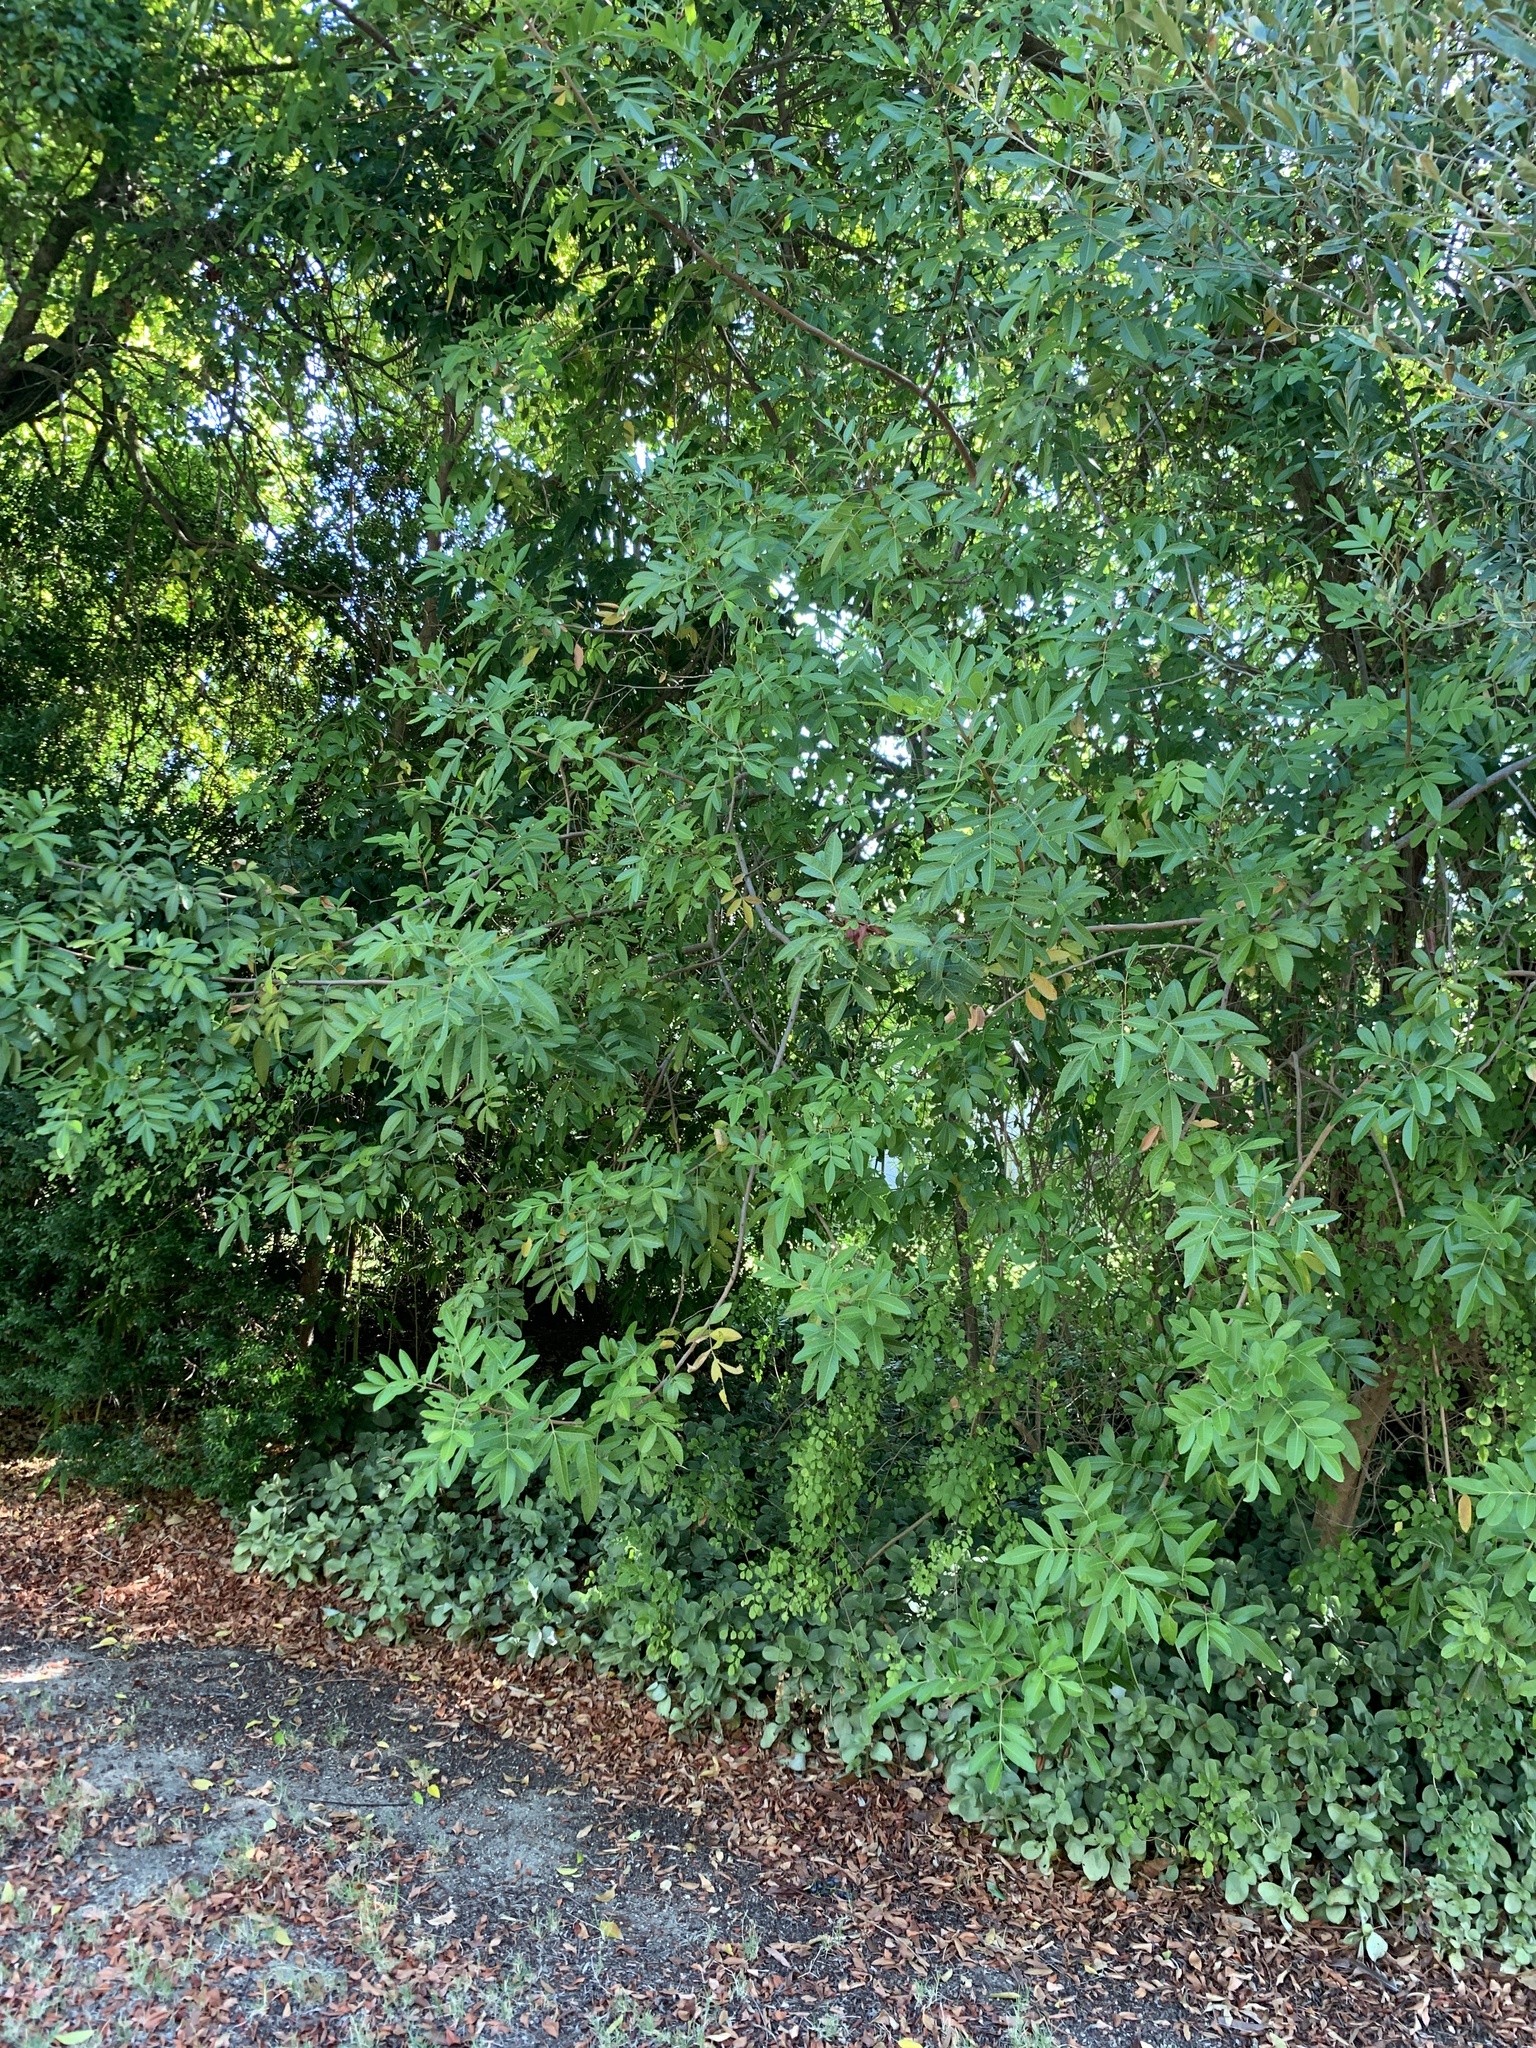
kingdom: Plantae
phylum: Tracheophyta
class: Magnoliopsida
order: Sapindales
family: Anacardiaceae
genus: Schinus
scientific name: Schinus terebinthifolia
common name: Brazilian peppertree
